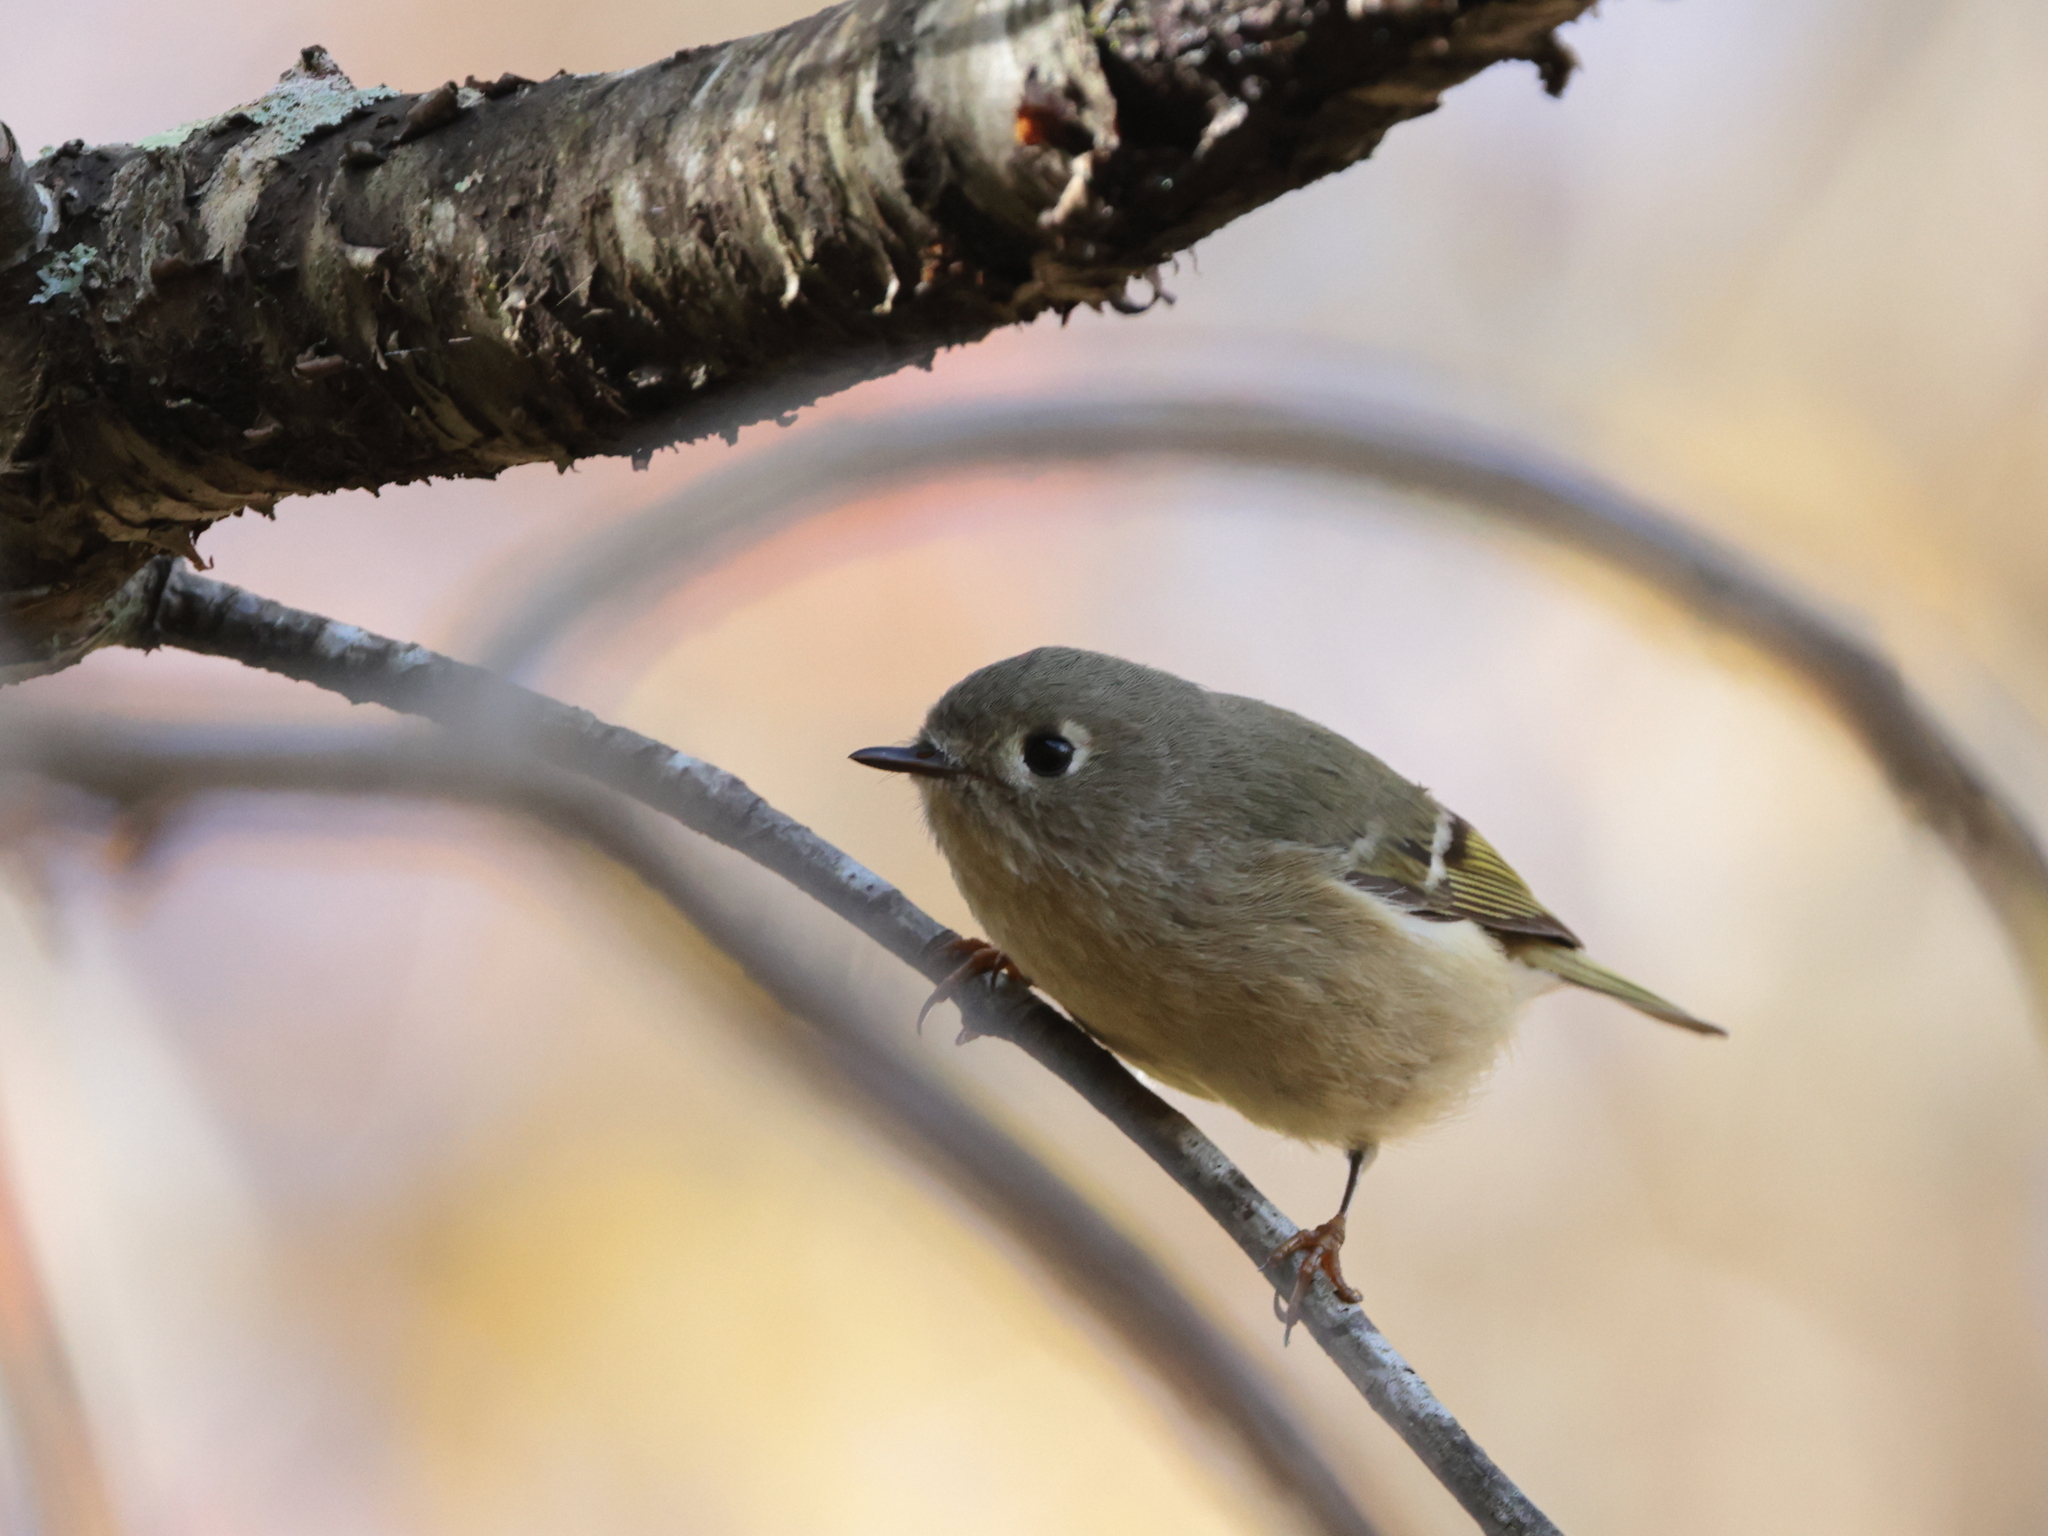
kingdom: Animalia
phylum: Chordata
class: Aves
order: Passeriformes
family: Regulidae
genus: Regulus
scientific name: Regulus calendula
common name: Ruby-crowned kinglet
